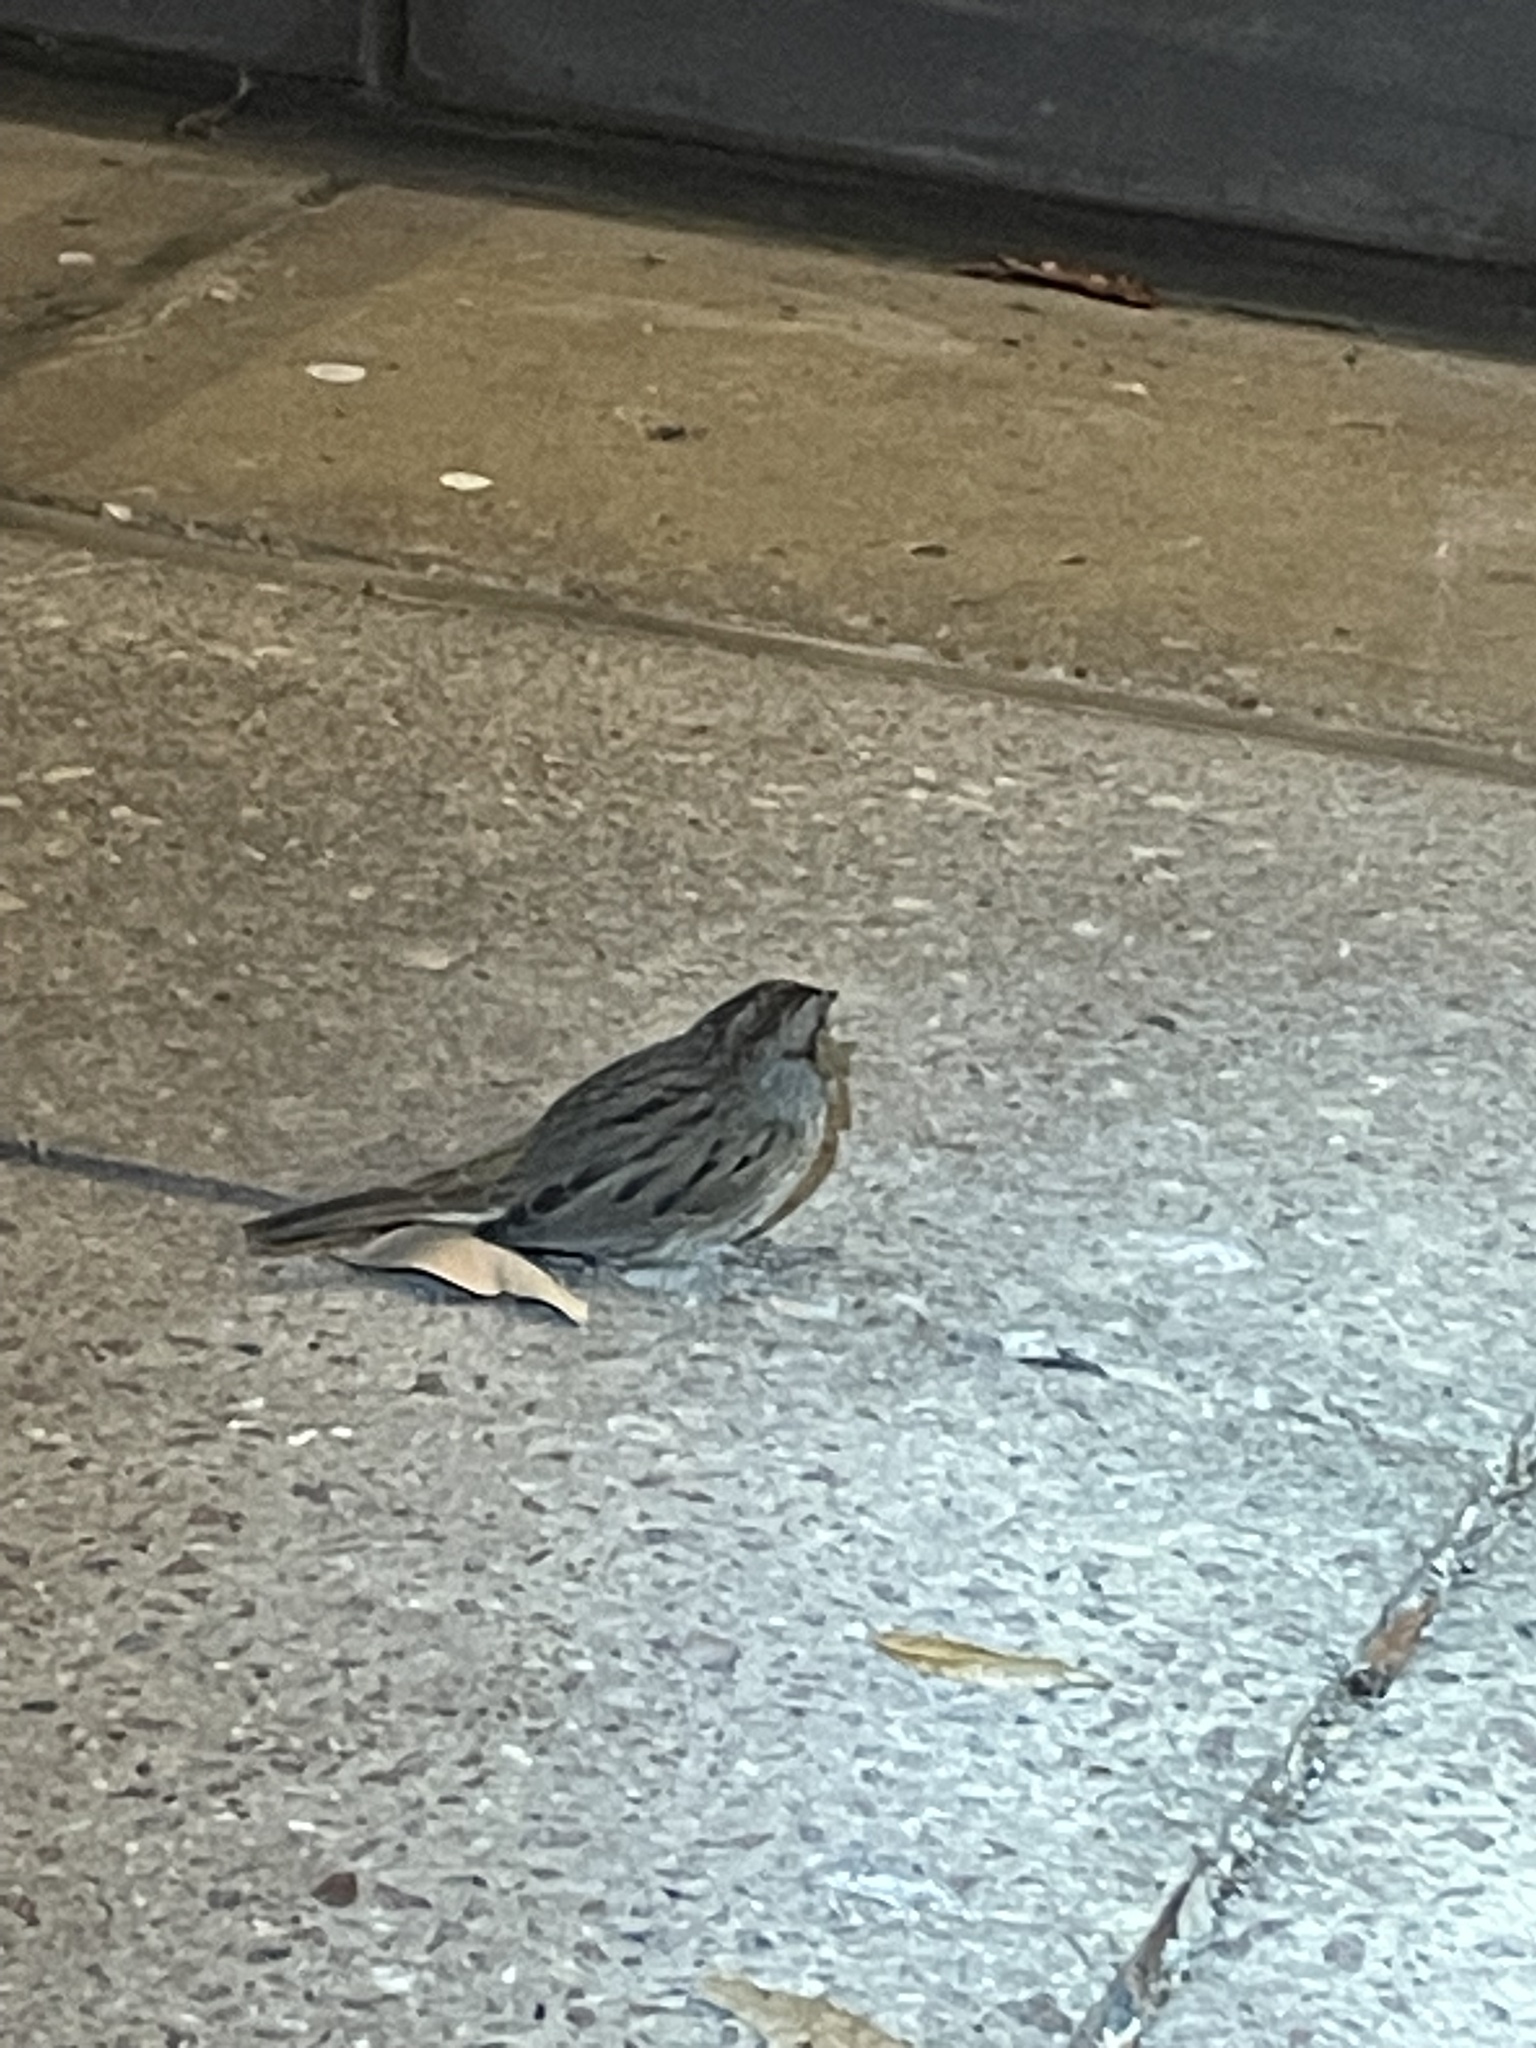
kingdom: Animalia
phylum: Chordata
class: Aves
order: Passeriformes
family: Passerellidae
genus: Melospiza
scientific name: Melospiza lincolnii
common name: Lincoln's sparrow
